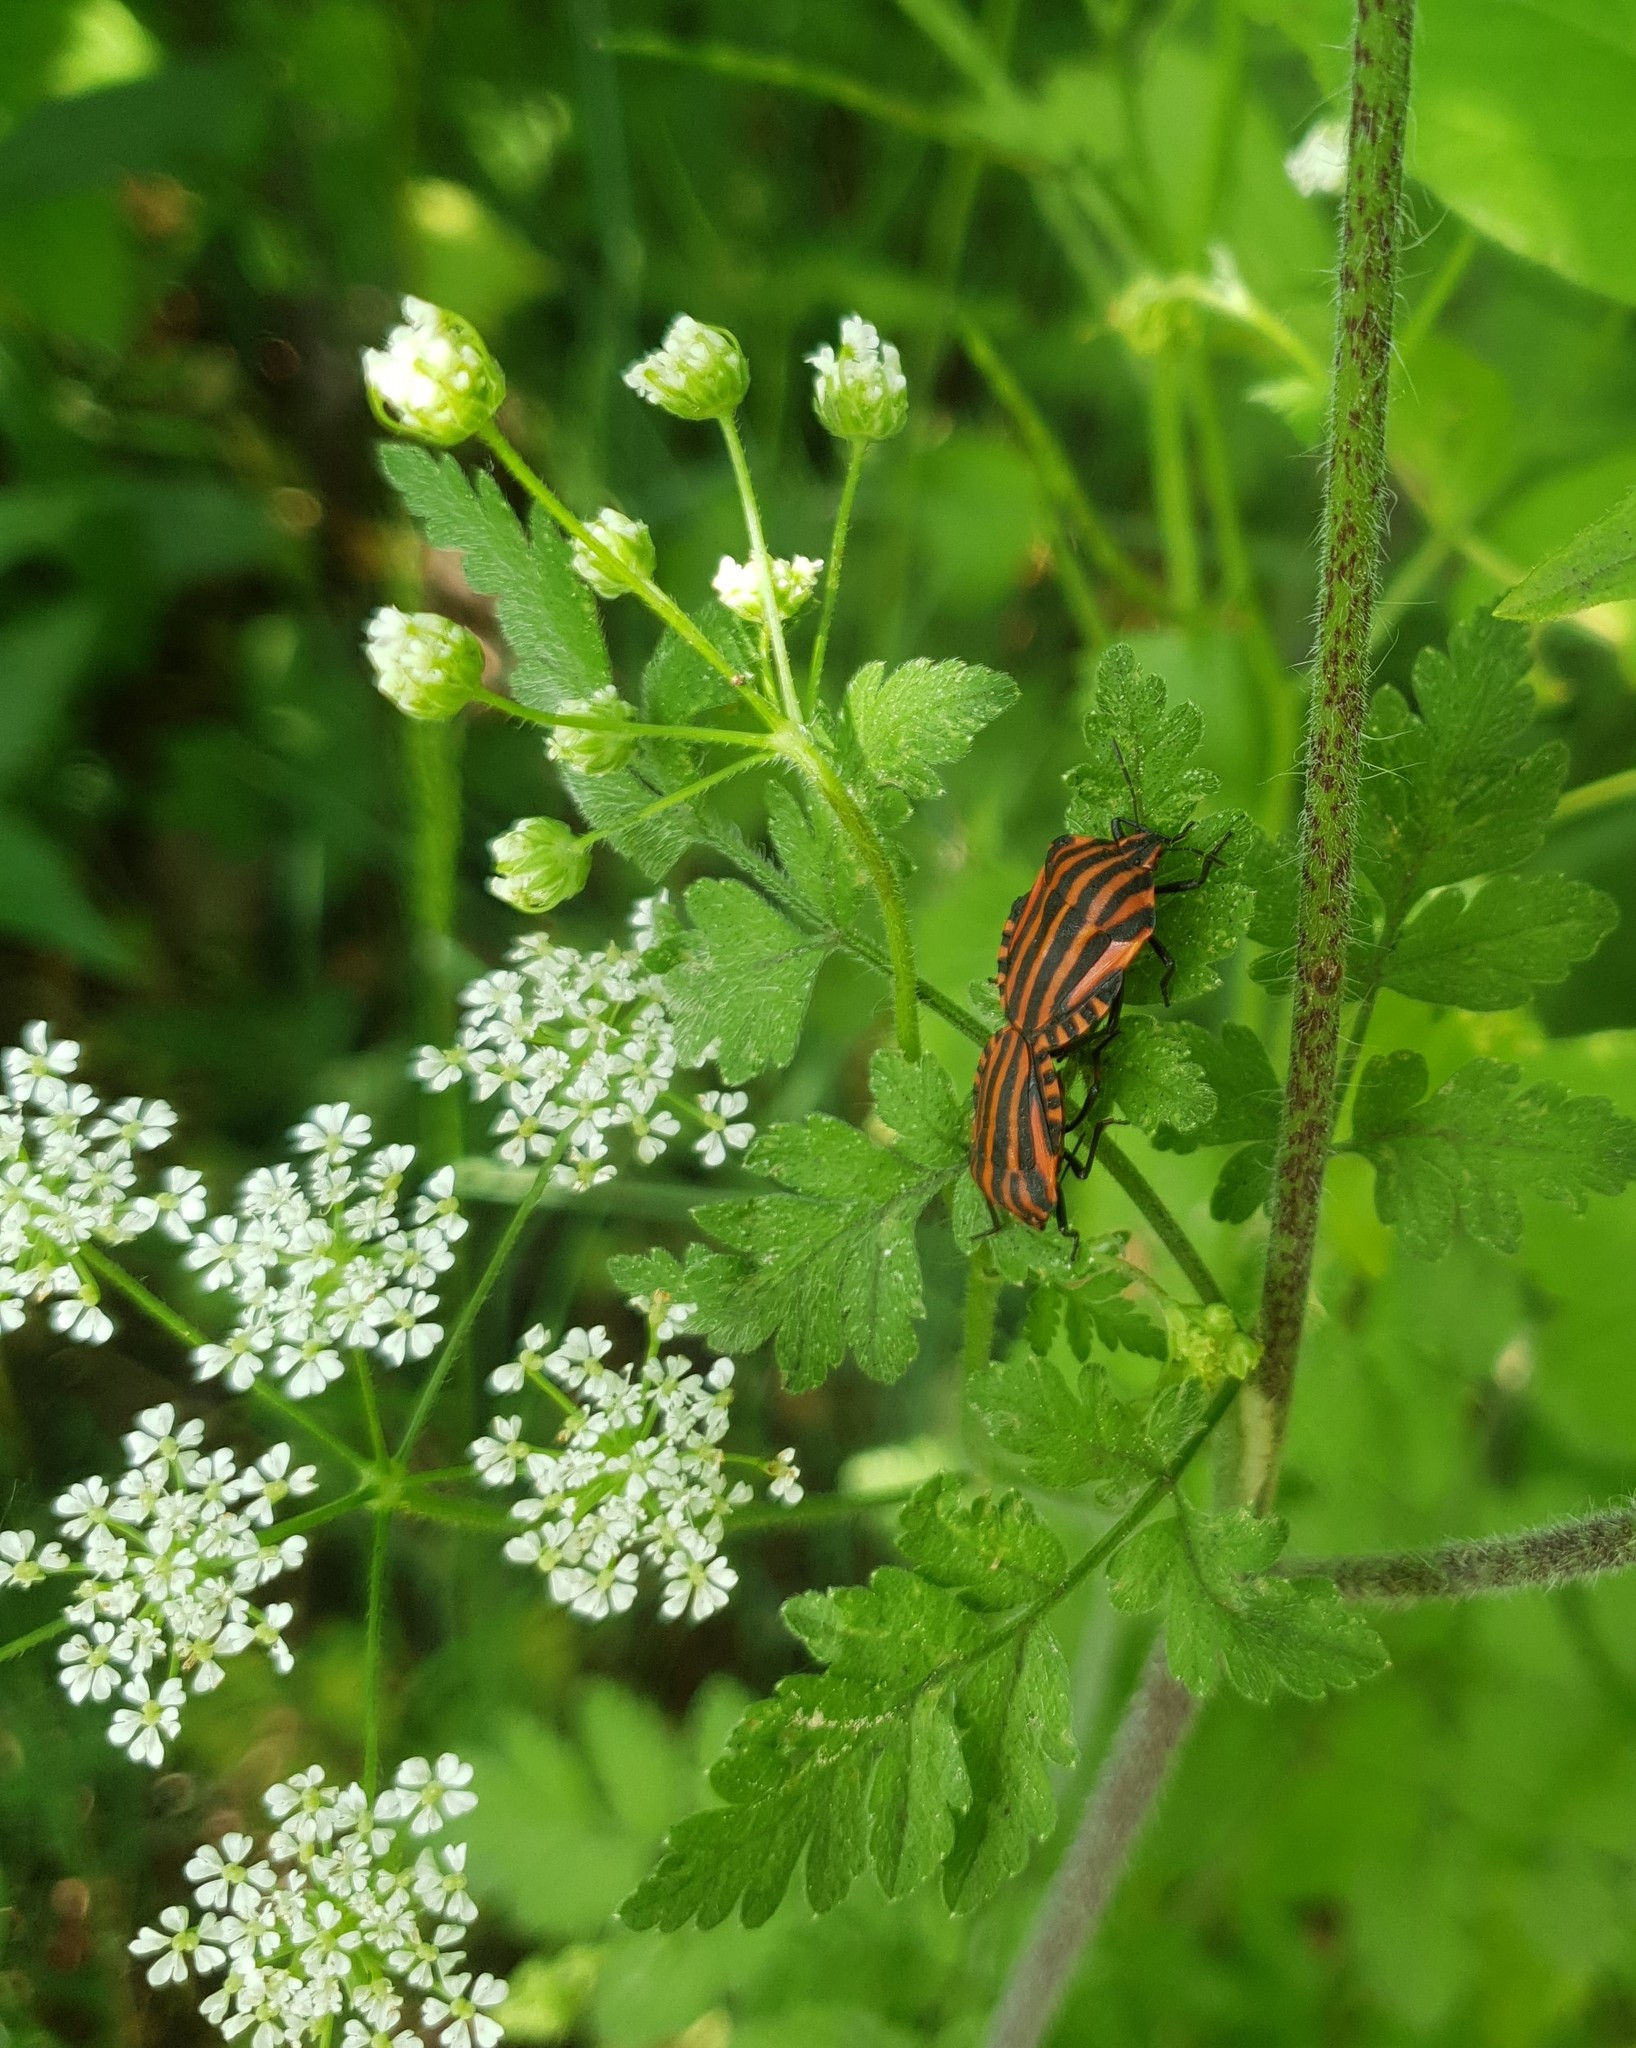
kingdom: Animalia
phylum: Arthropoda
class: Insecta
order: Hemiptera
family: Pentatomidae
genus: Graphosoma
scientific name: Graphosoma italicum
